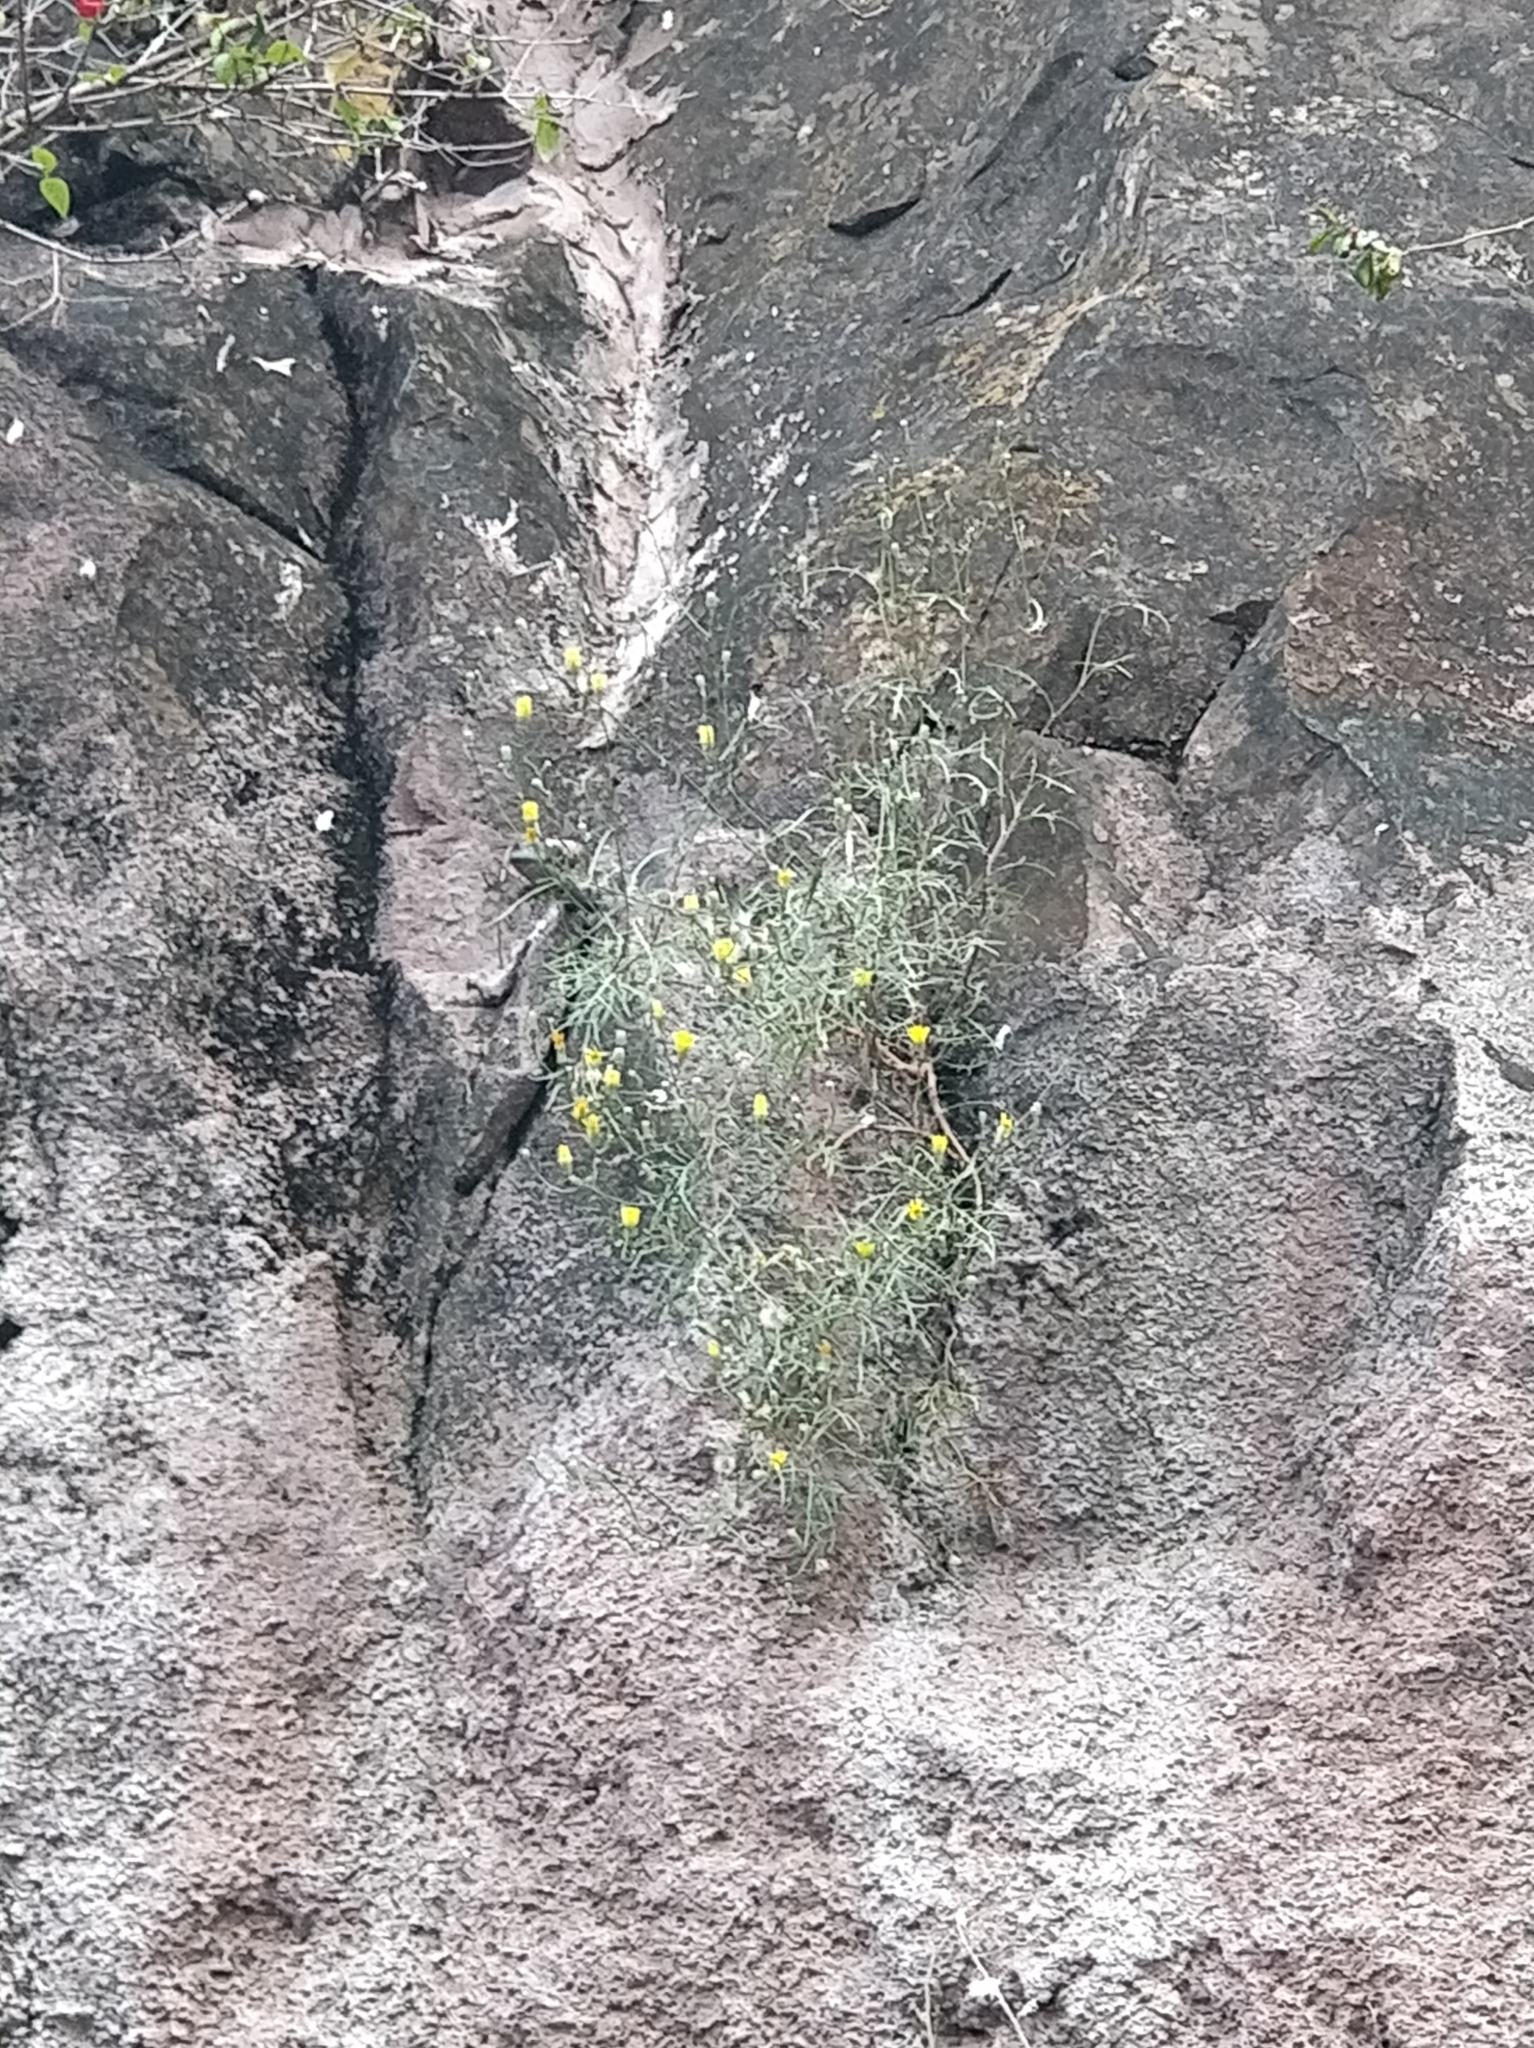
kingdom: Plantae
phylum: Tracheophyta
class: Magnoliopsida
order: Asterales
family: Asteraceae
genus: Tolpis
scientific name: Tolpis succulenta
